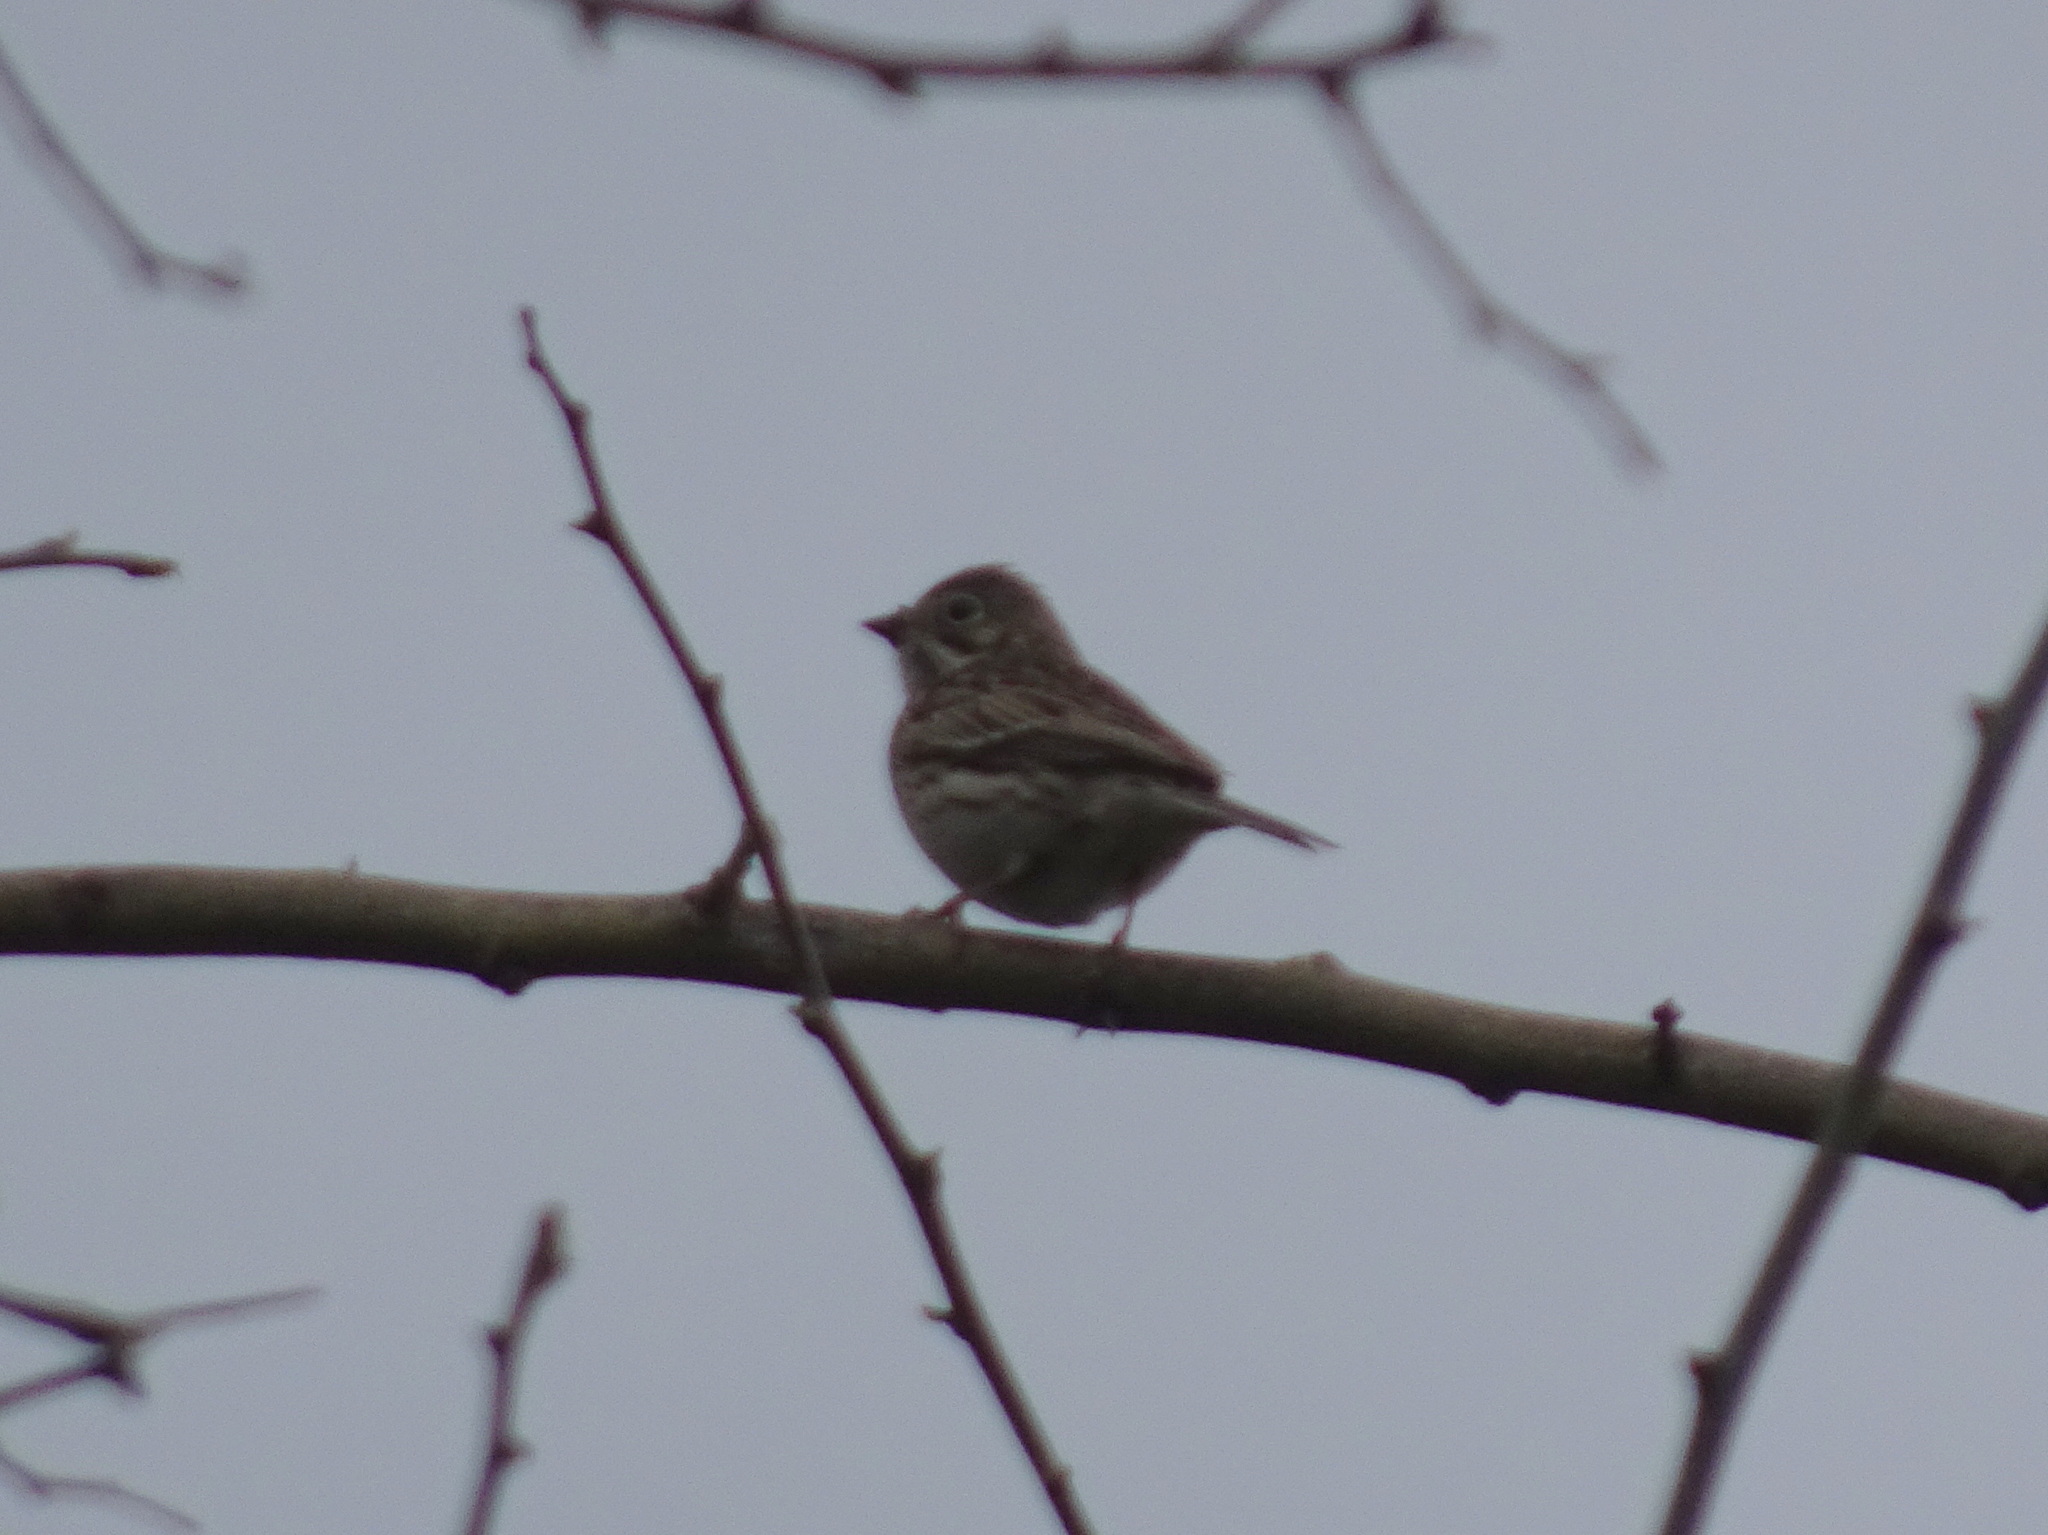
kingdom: Animalia
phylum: Chordata
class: Aves
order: Passeriformes
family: Passerellidae
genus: Pooecetes
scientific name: Pooecetes gramineus
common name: Vesper sparrow
